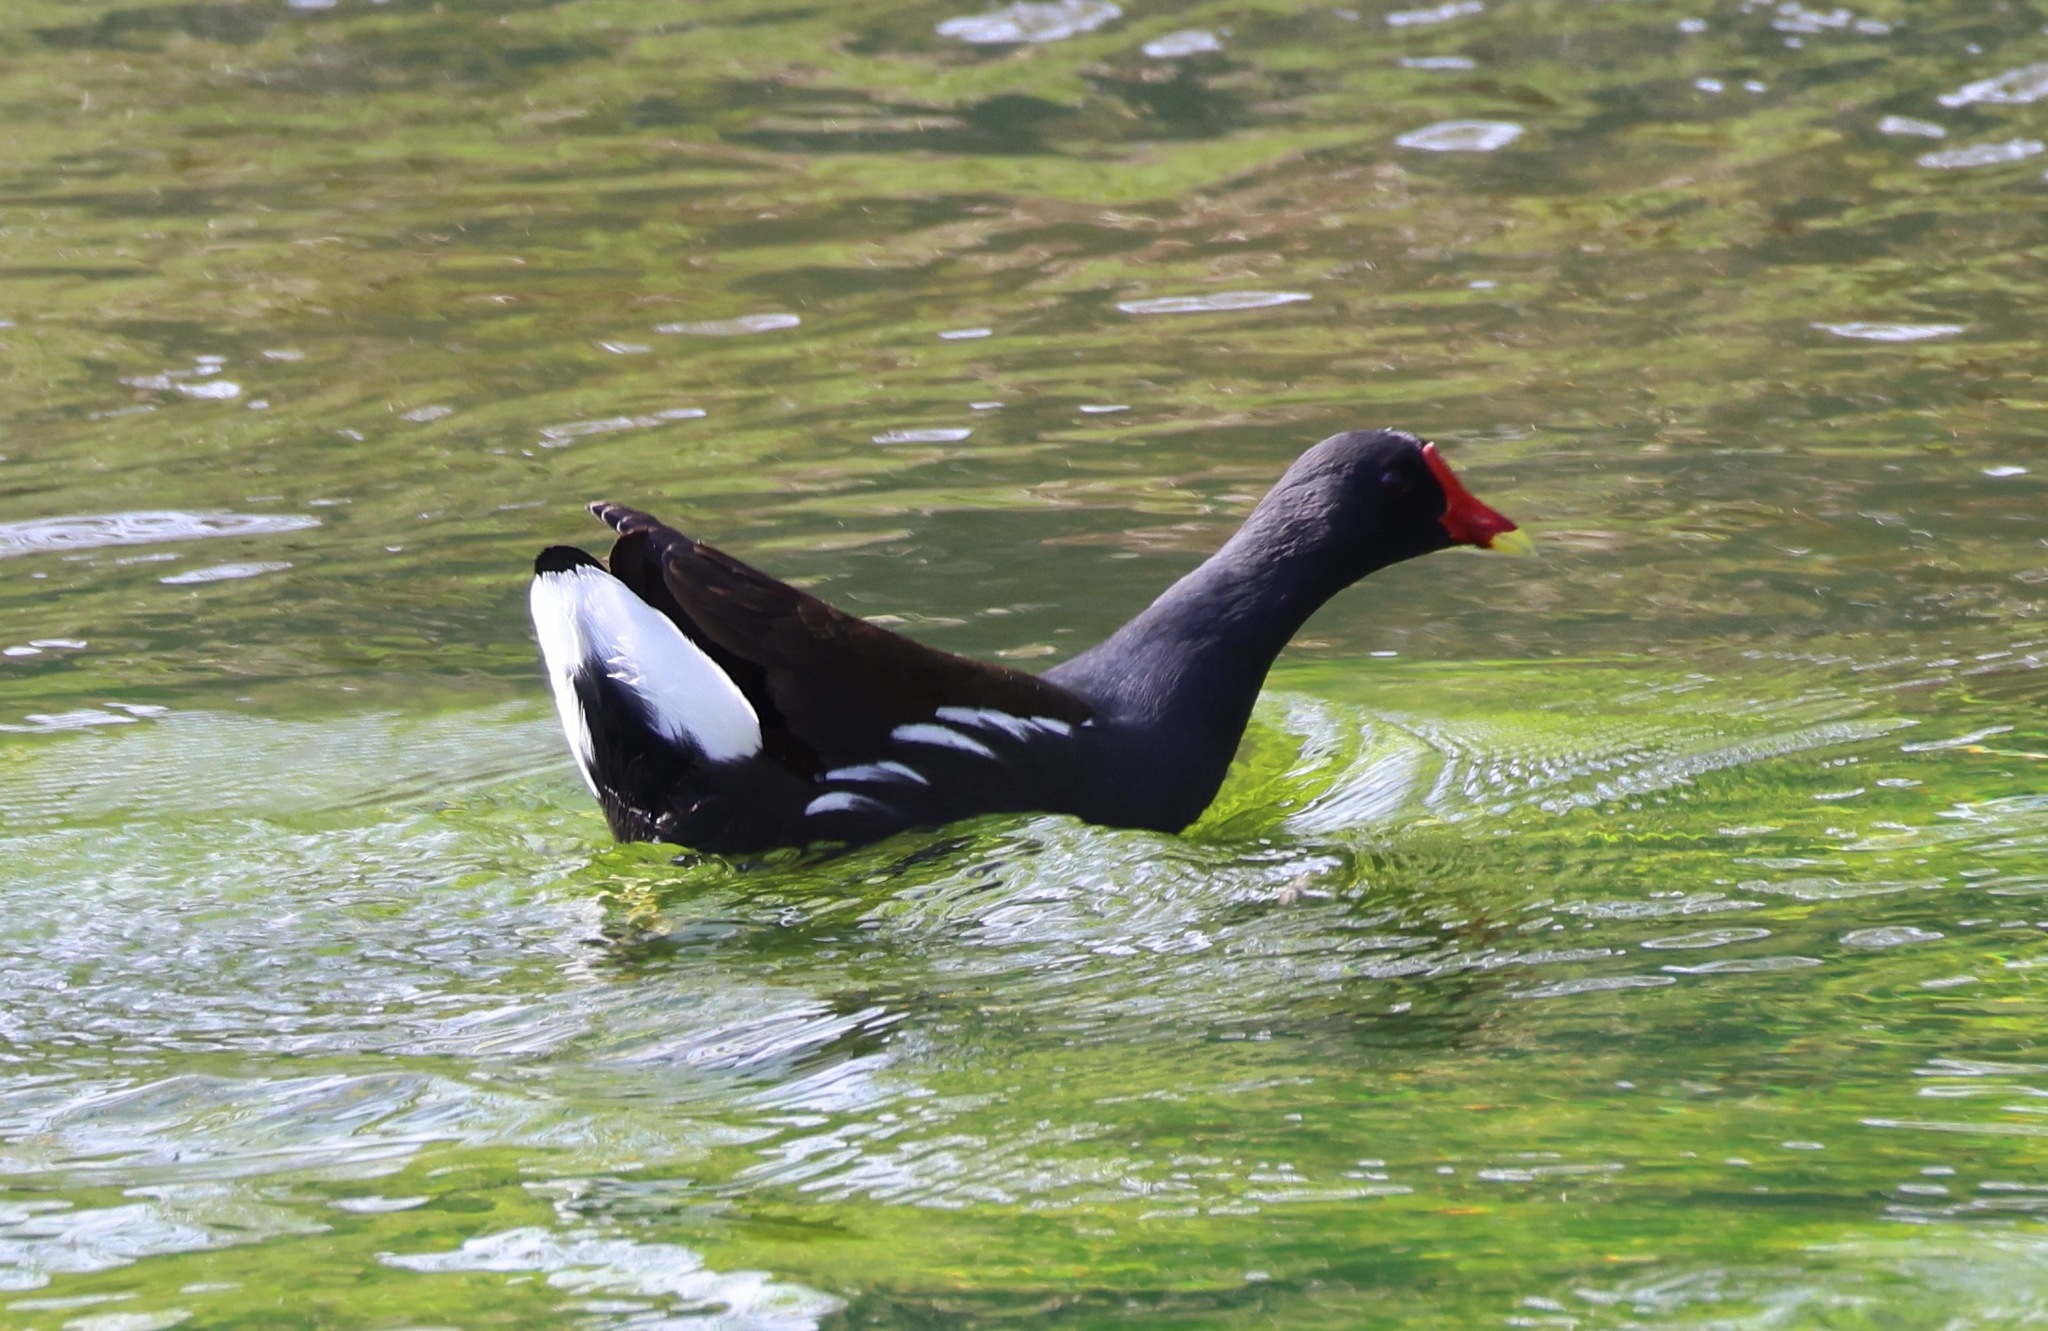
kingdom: Animalia
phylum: Chordata
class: Aves
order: Gruiformes
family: Rallidae
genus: Gallinula
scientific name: Gallinula chloropus
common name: Common moorhen
